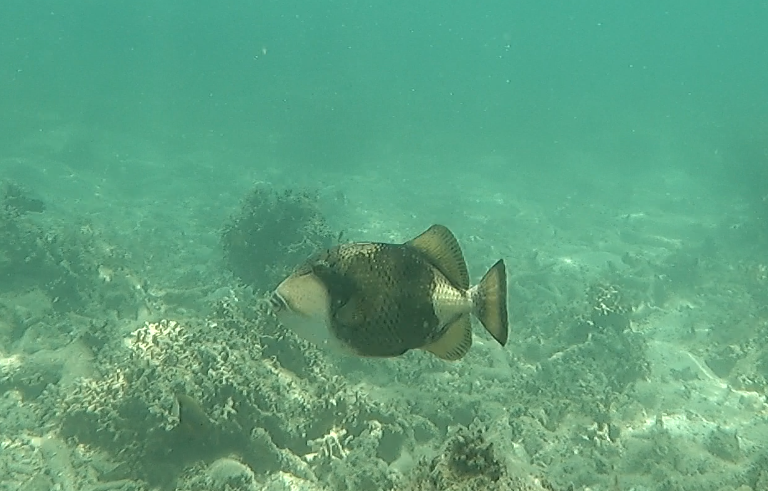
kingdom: Animalia
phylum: Chordata
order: Tetraodontiformes
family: Balistidae
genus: Balistoides
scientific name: Balistoides viridescens
